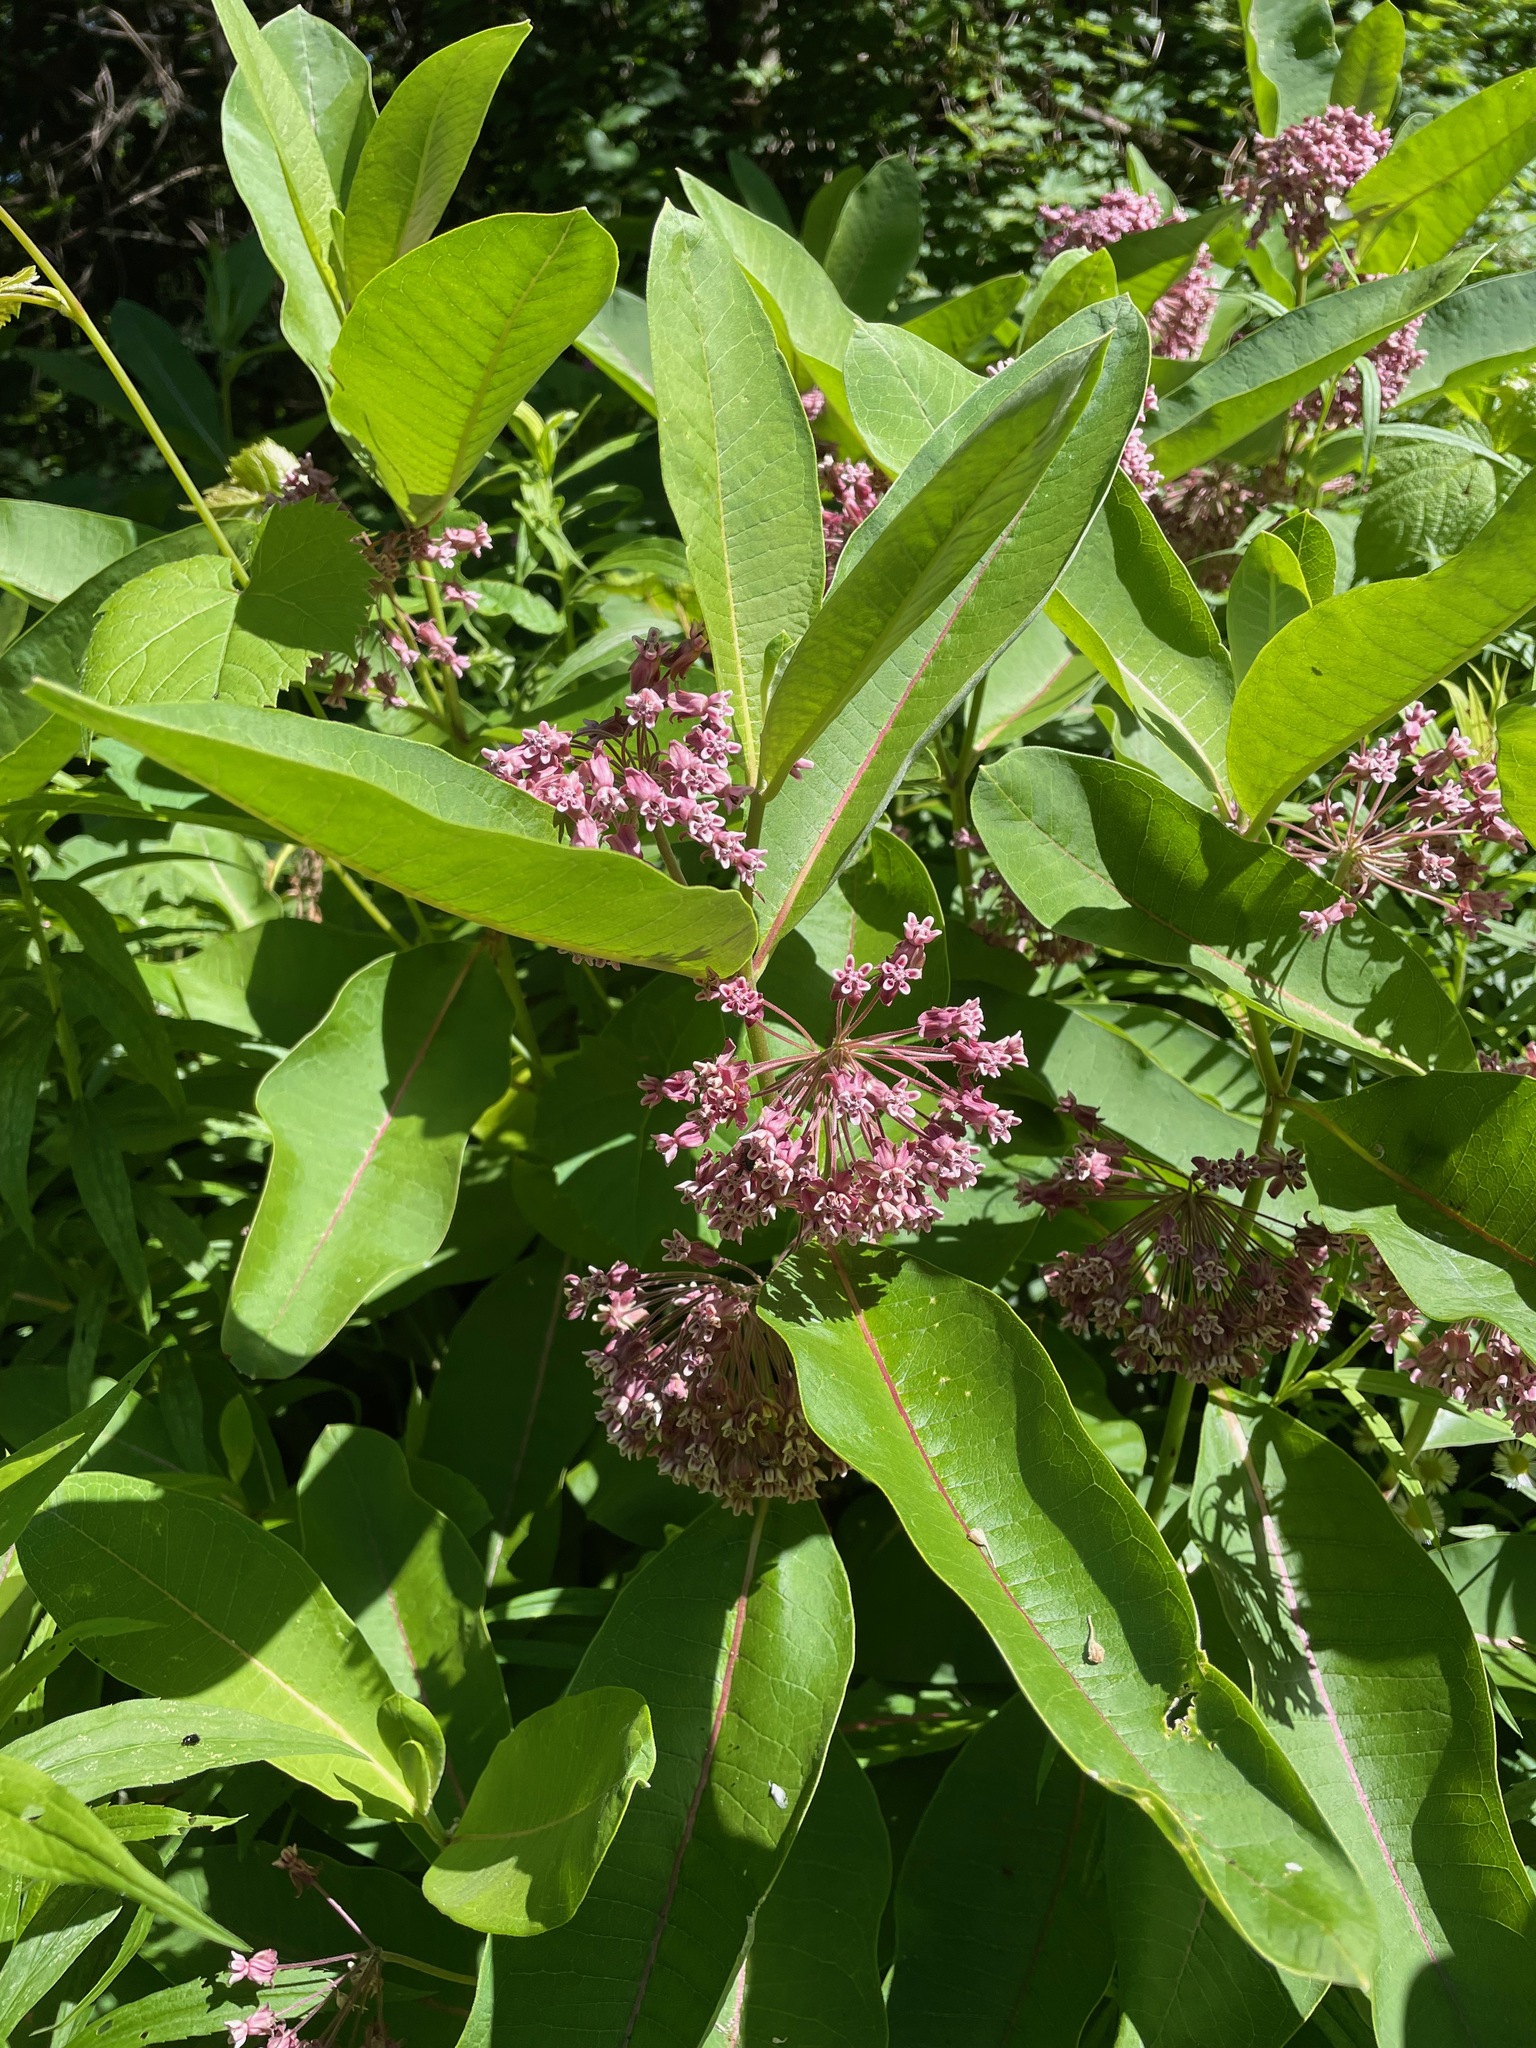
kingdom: Plantae
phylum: Tracheophyta
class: Magnoliopsida
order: Gentianales
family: Apocynaceae
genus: Asclepias
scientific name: Asclepias syriaca
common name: Common milkweed
